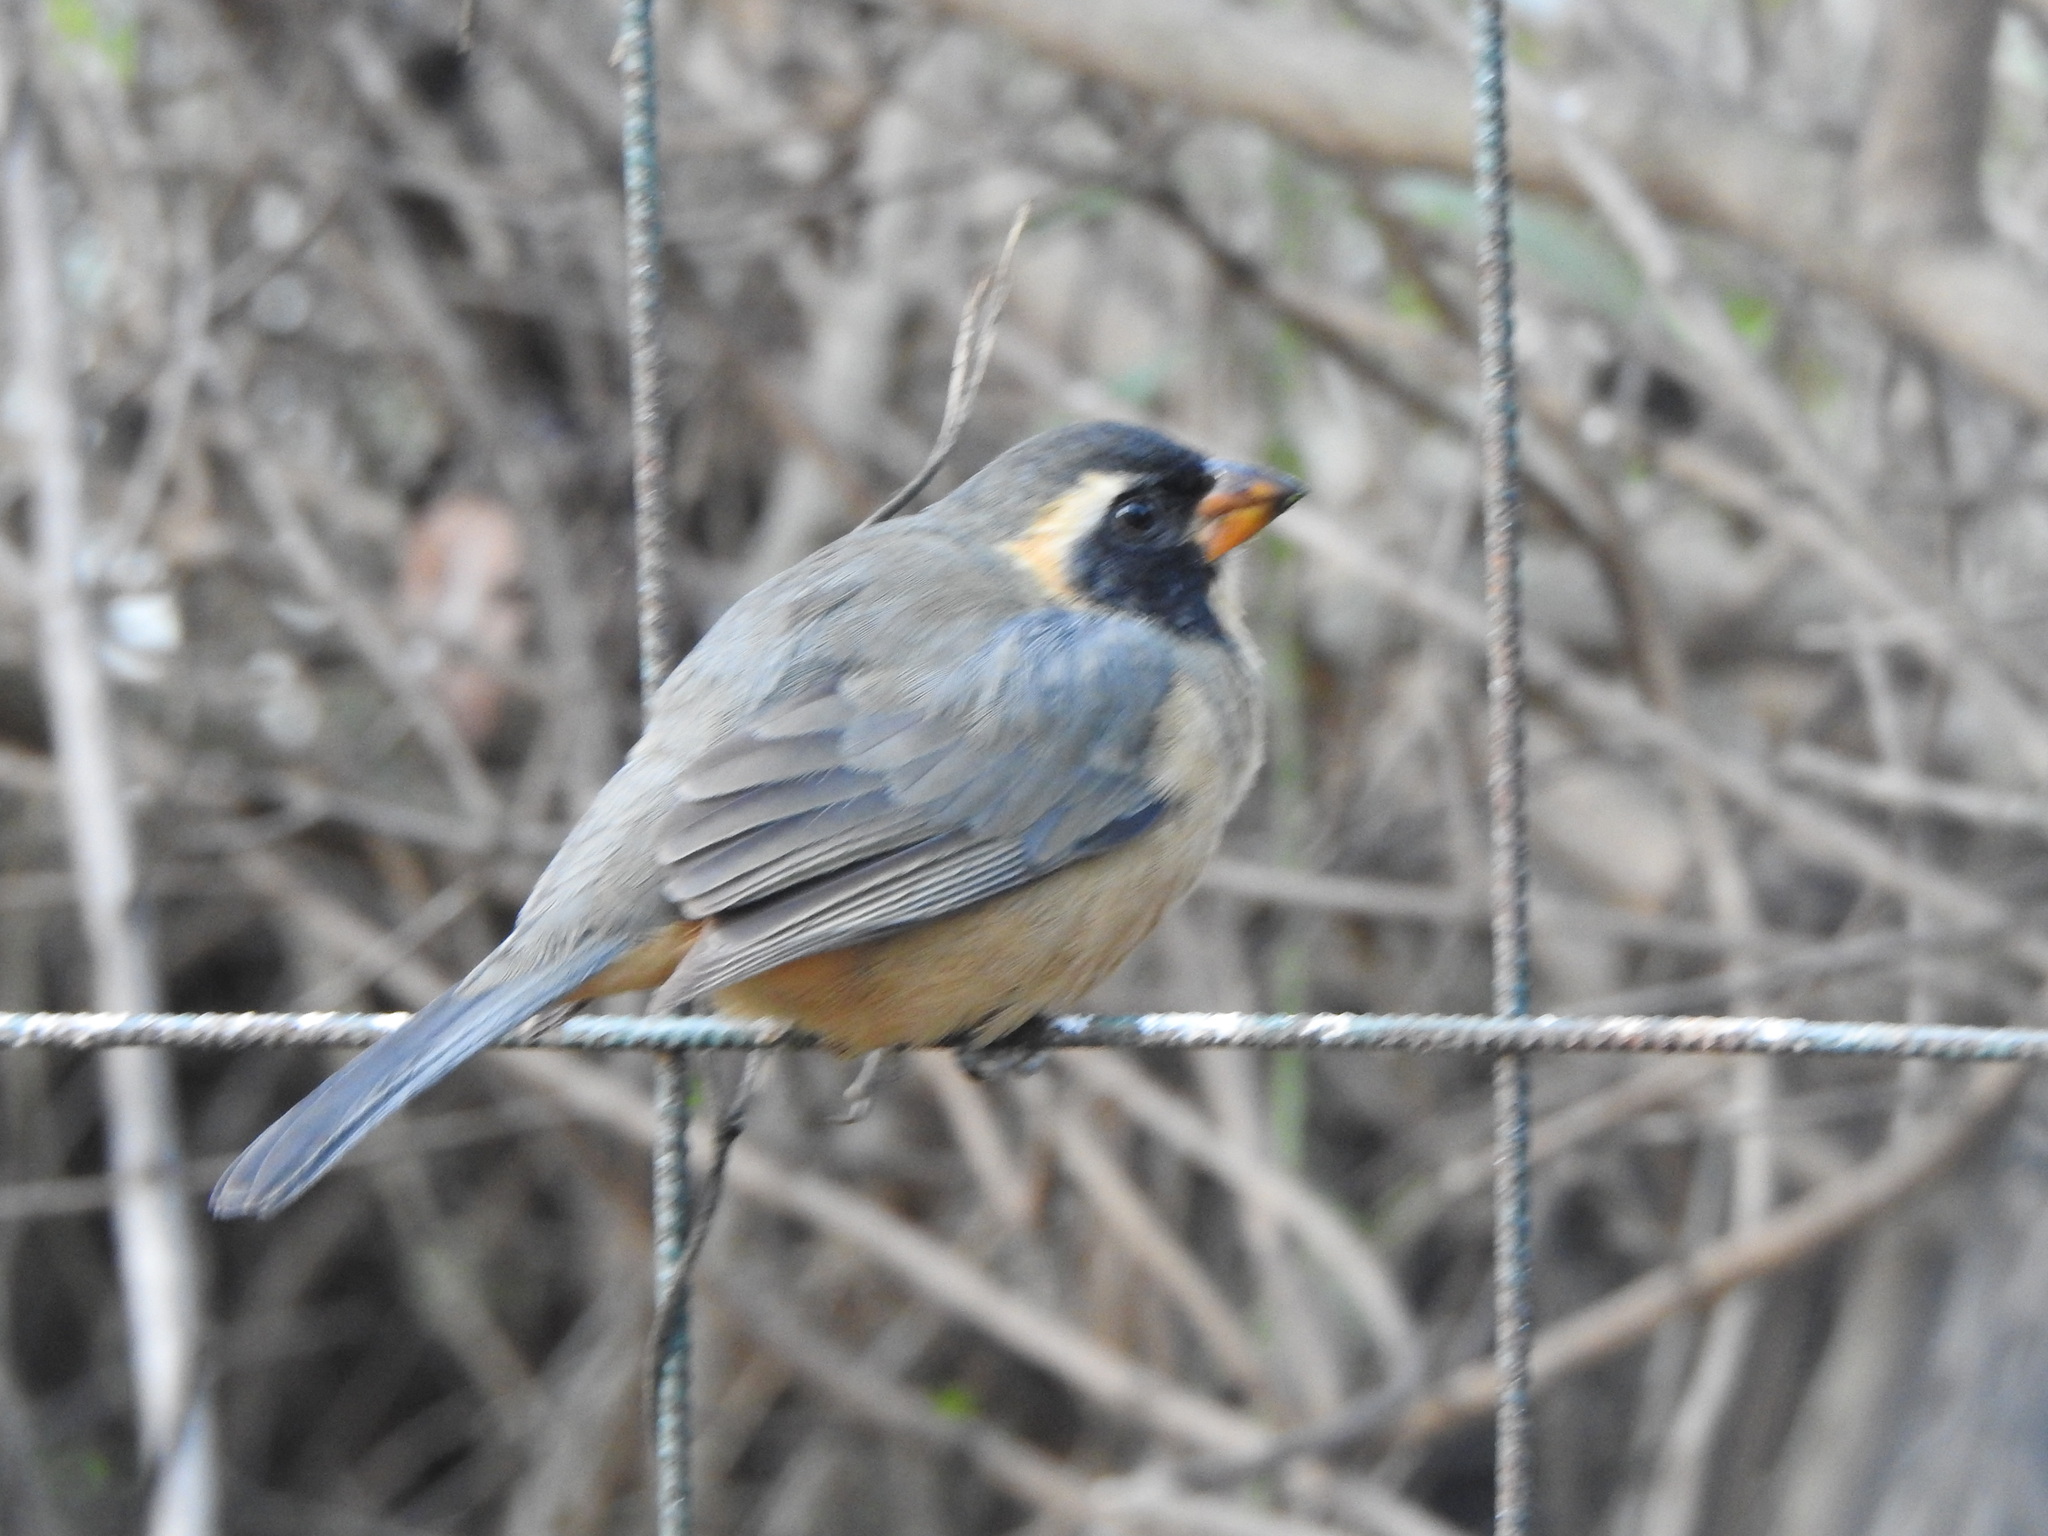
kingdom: Animalia
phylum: Chordata
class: Aves
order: Passeriformes
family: Thraupidae
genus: Saltator
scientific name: Saltator aurantiirostris
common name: Golden-billed saltator
